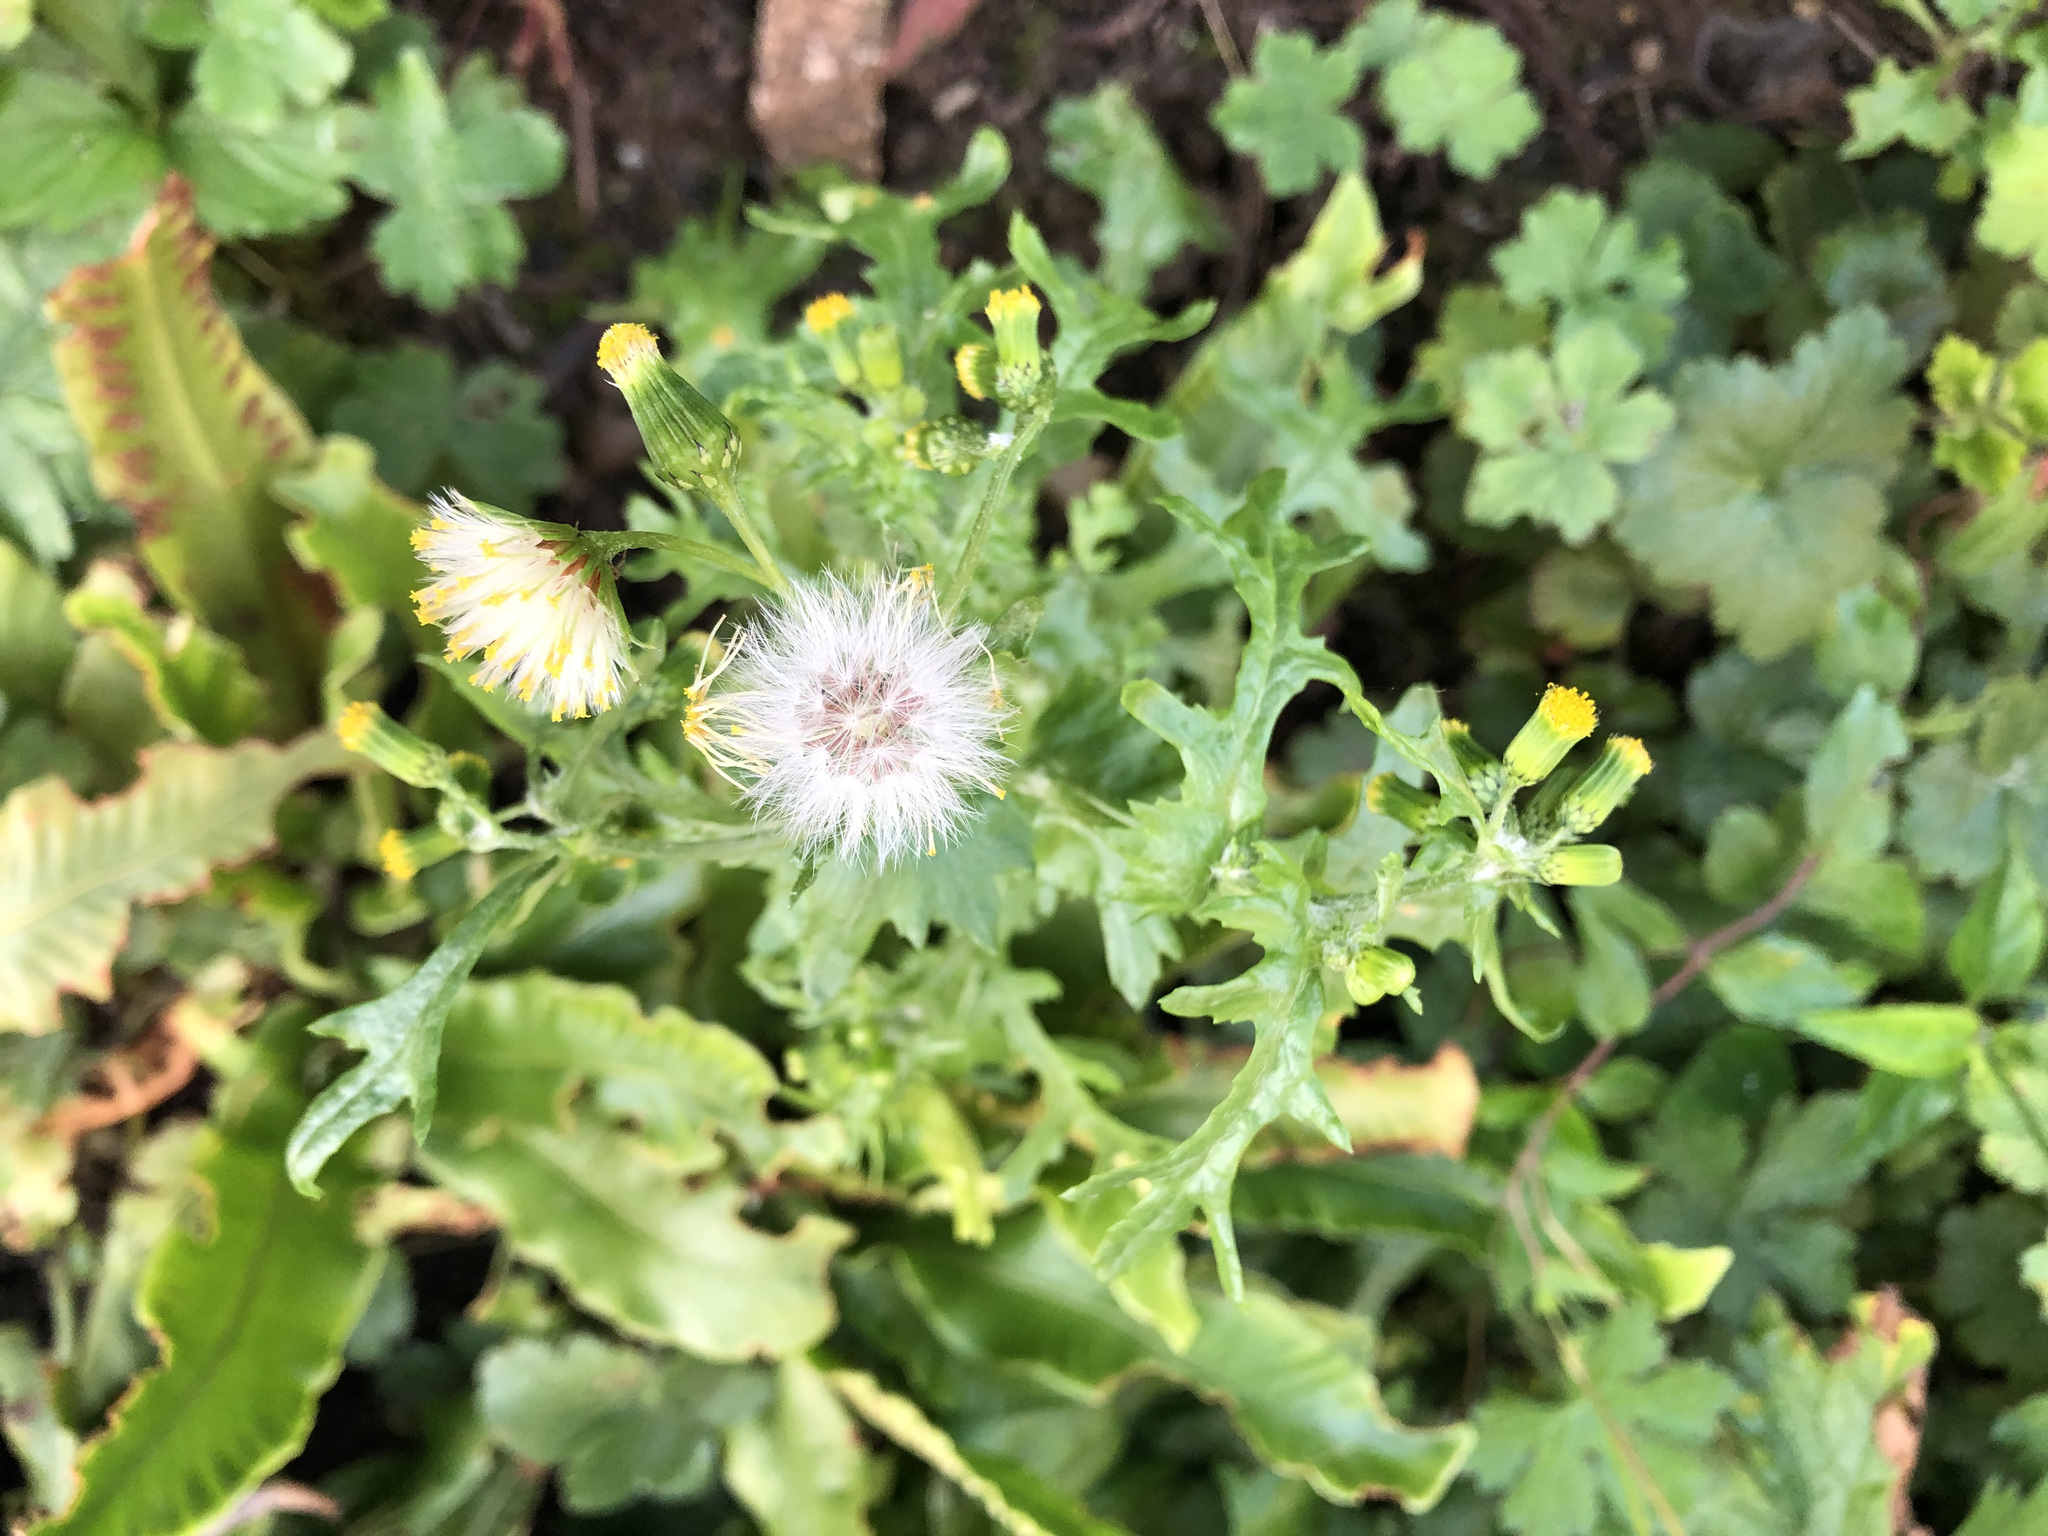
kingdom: Plantae
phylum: Tracheophyta
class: Magnoliopsida
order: Asterales
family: Asteraceae
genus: Senecio
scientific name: Senecio vulgaris
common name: Old-man-in-the-spring
